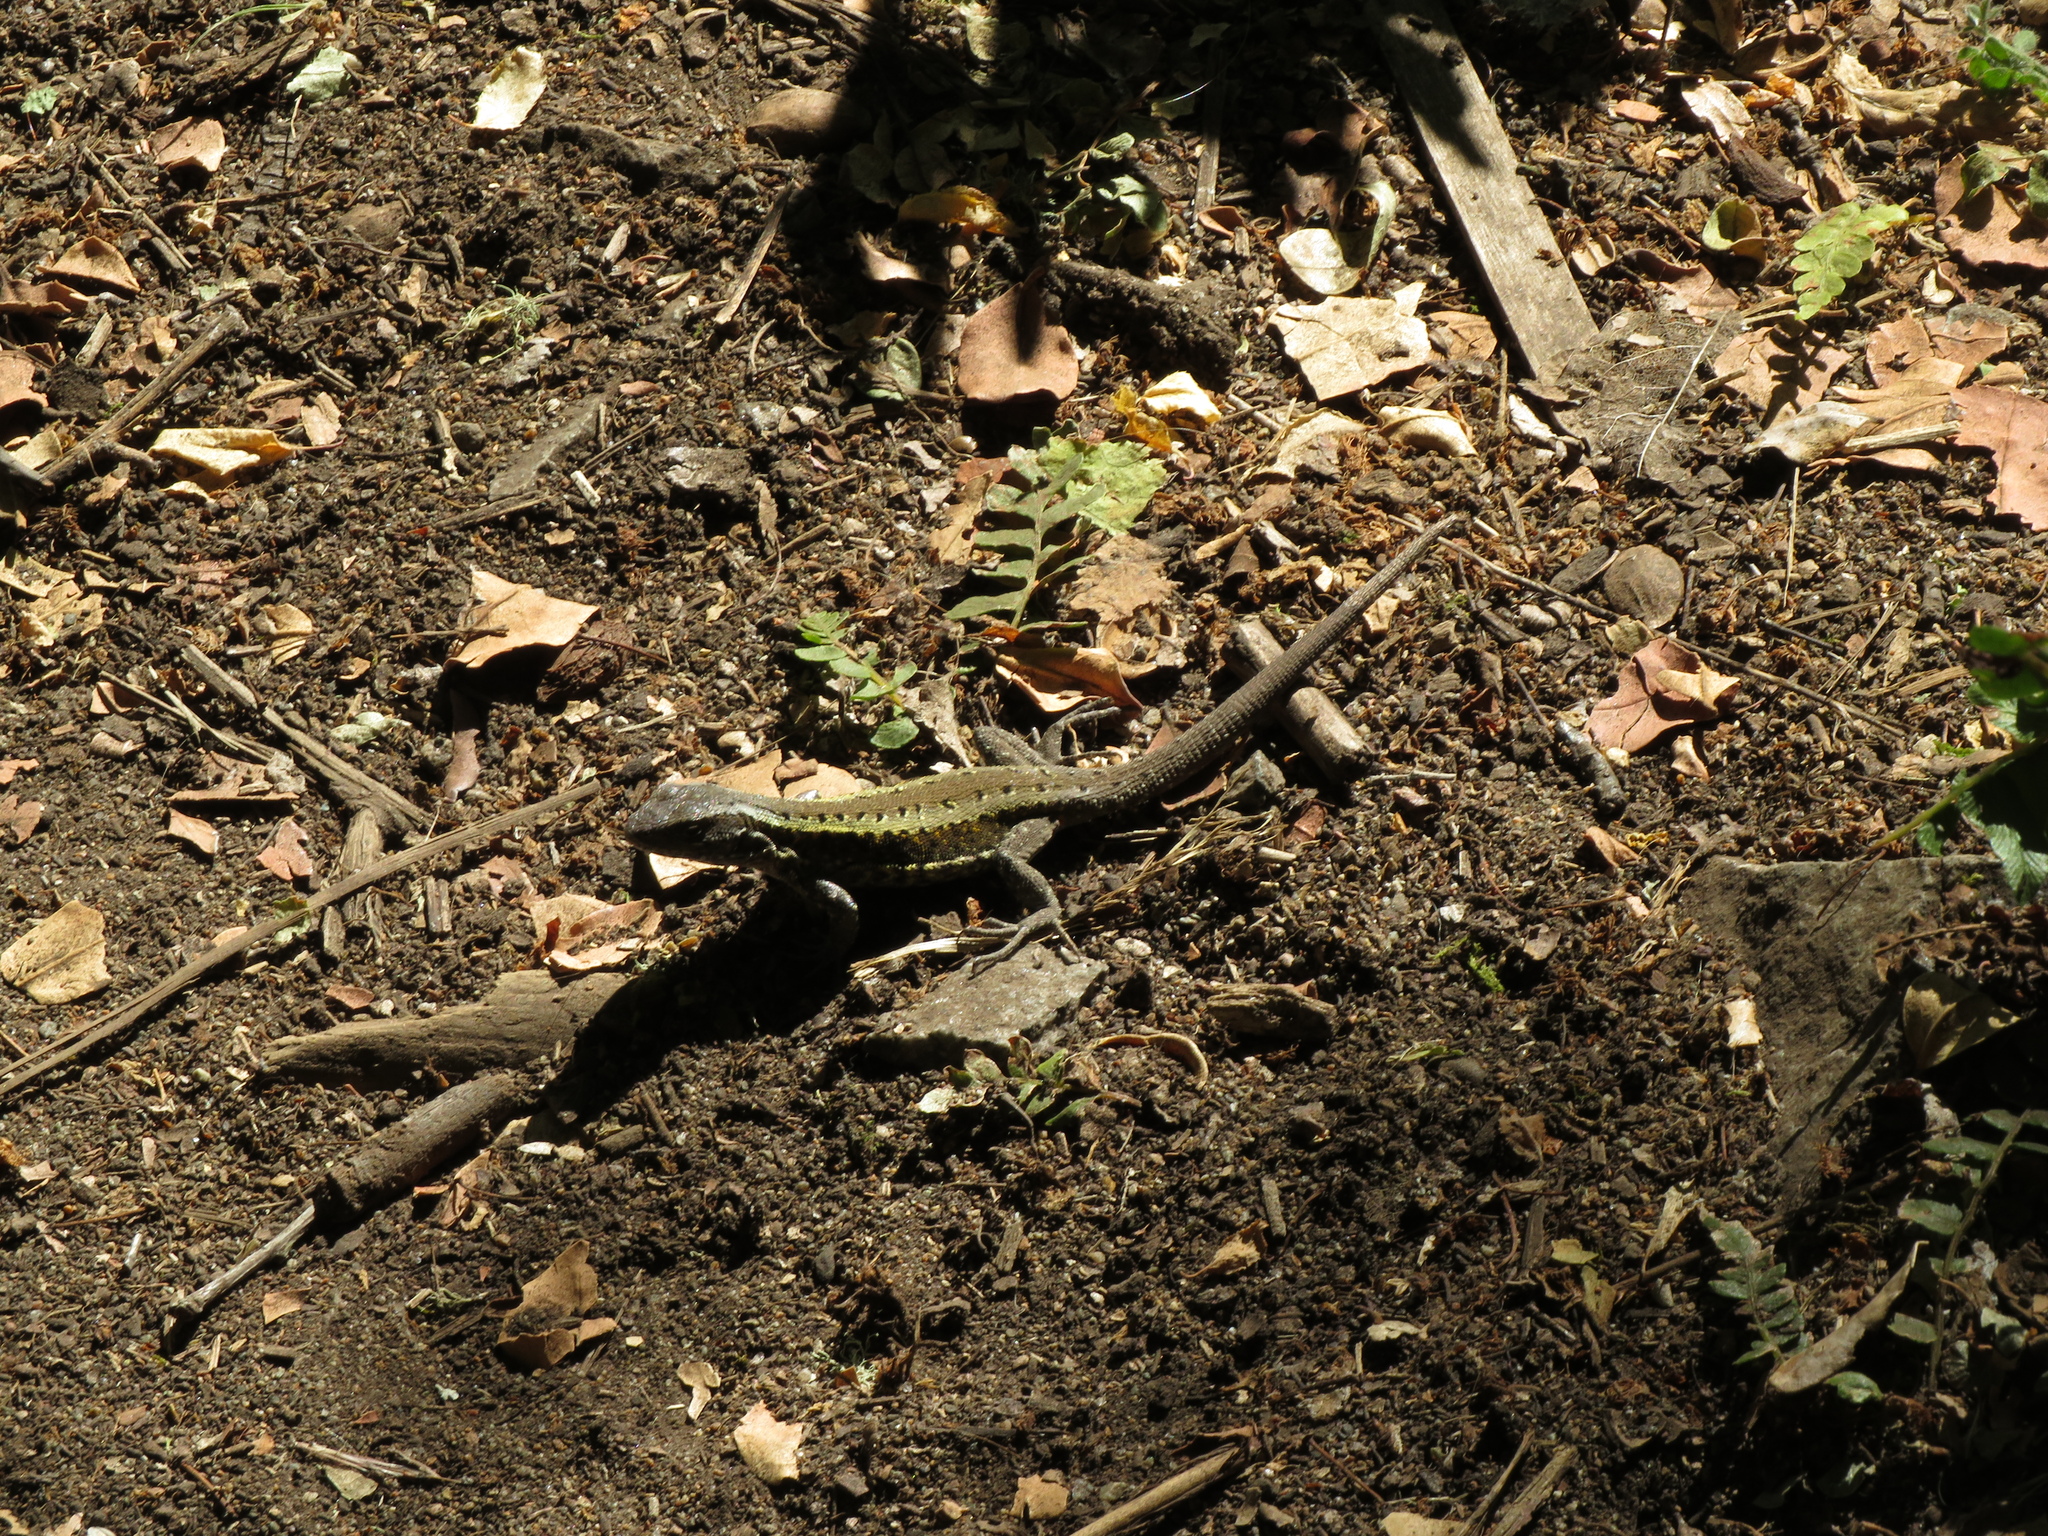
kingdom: Animalia
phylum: Chordata
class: Squamata
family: Liolaemidae
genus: Liolaemus
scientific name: Liolaemus pictus
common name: Painted tree iguana
